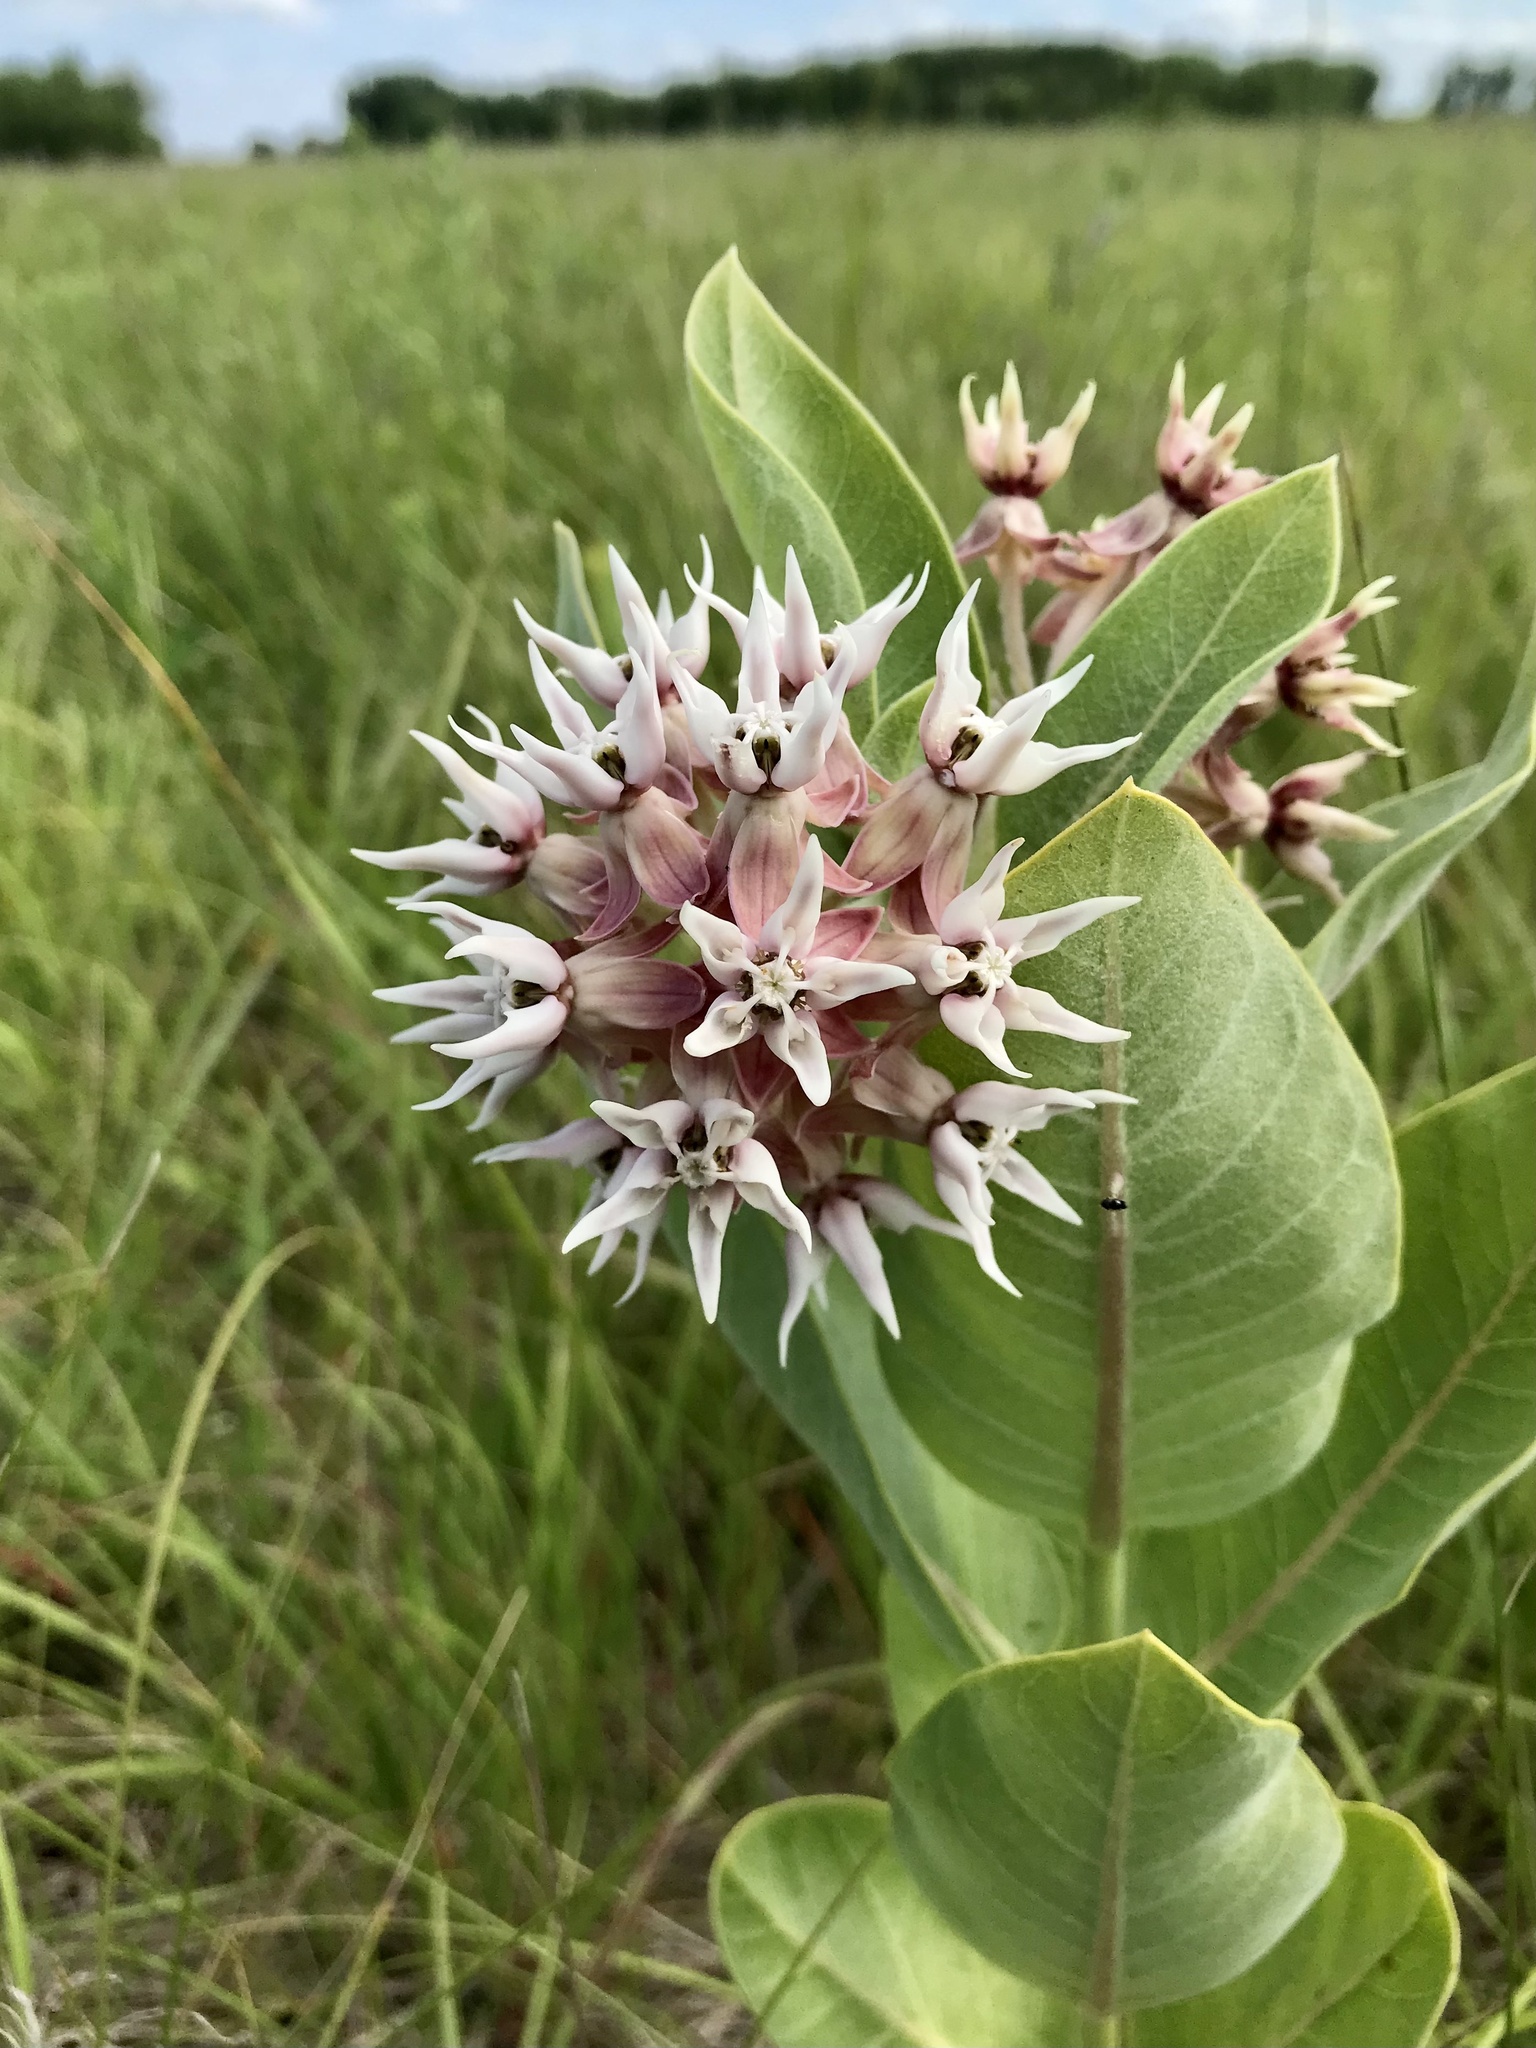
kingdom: Plantae
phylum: Tracheophyta
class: Magnoliopsida
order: Gentianales
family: Apocynaceae
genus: Asclepias
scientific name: Asclepias speciosa
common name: Showy milkweed
